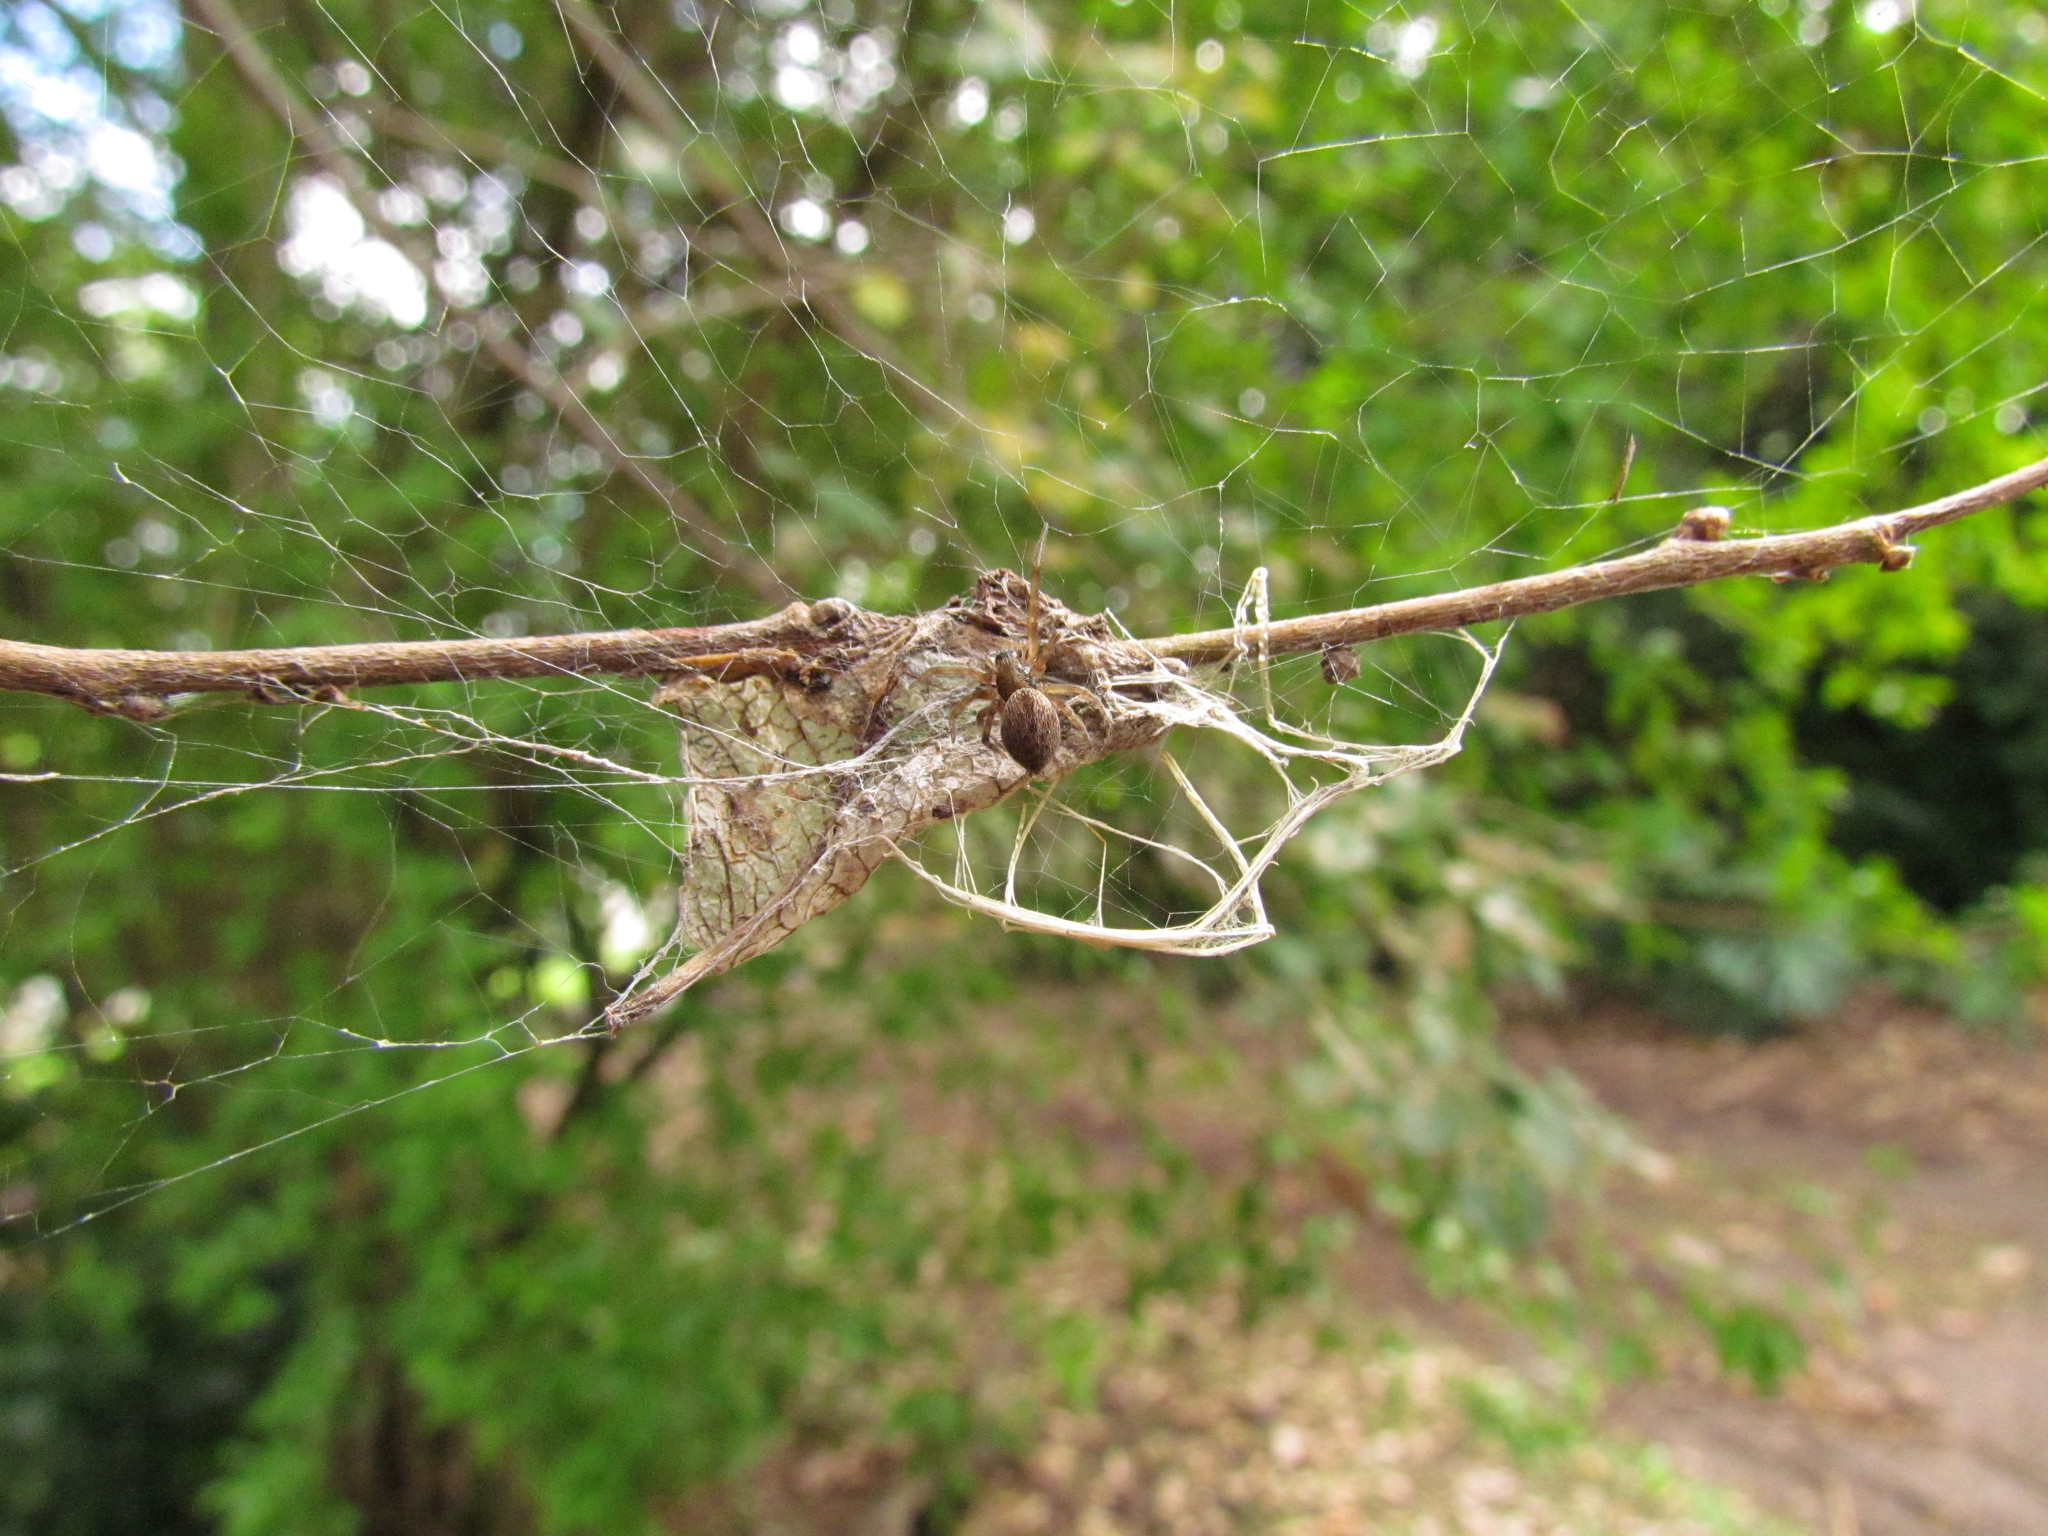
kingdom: Animalia
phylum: Arthropoda
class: Arachnida
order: Araneae
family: Desidae
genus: Badumna
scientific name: Badumna longinqua
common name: Gray house spider
